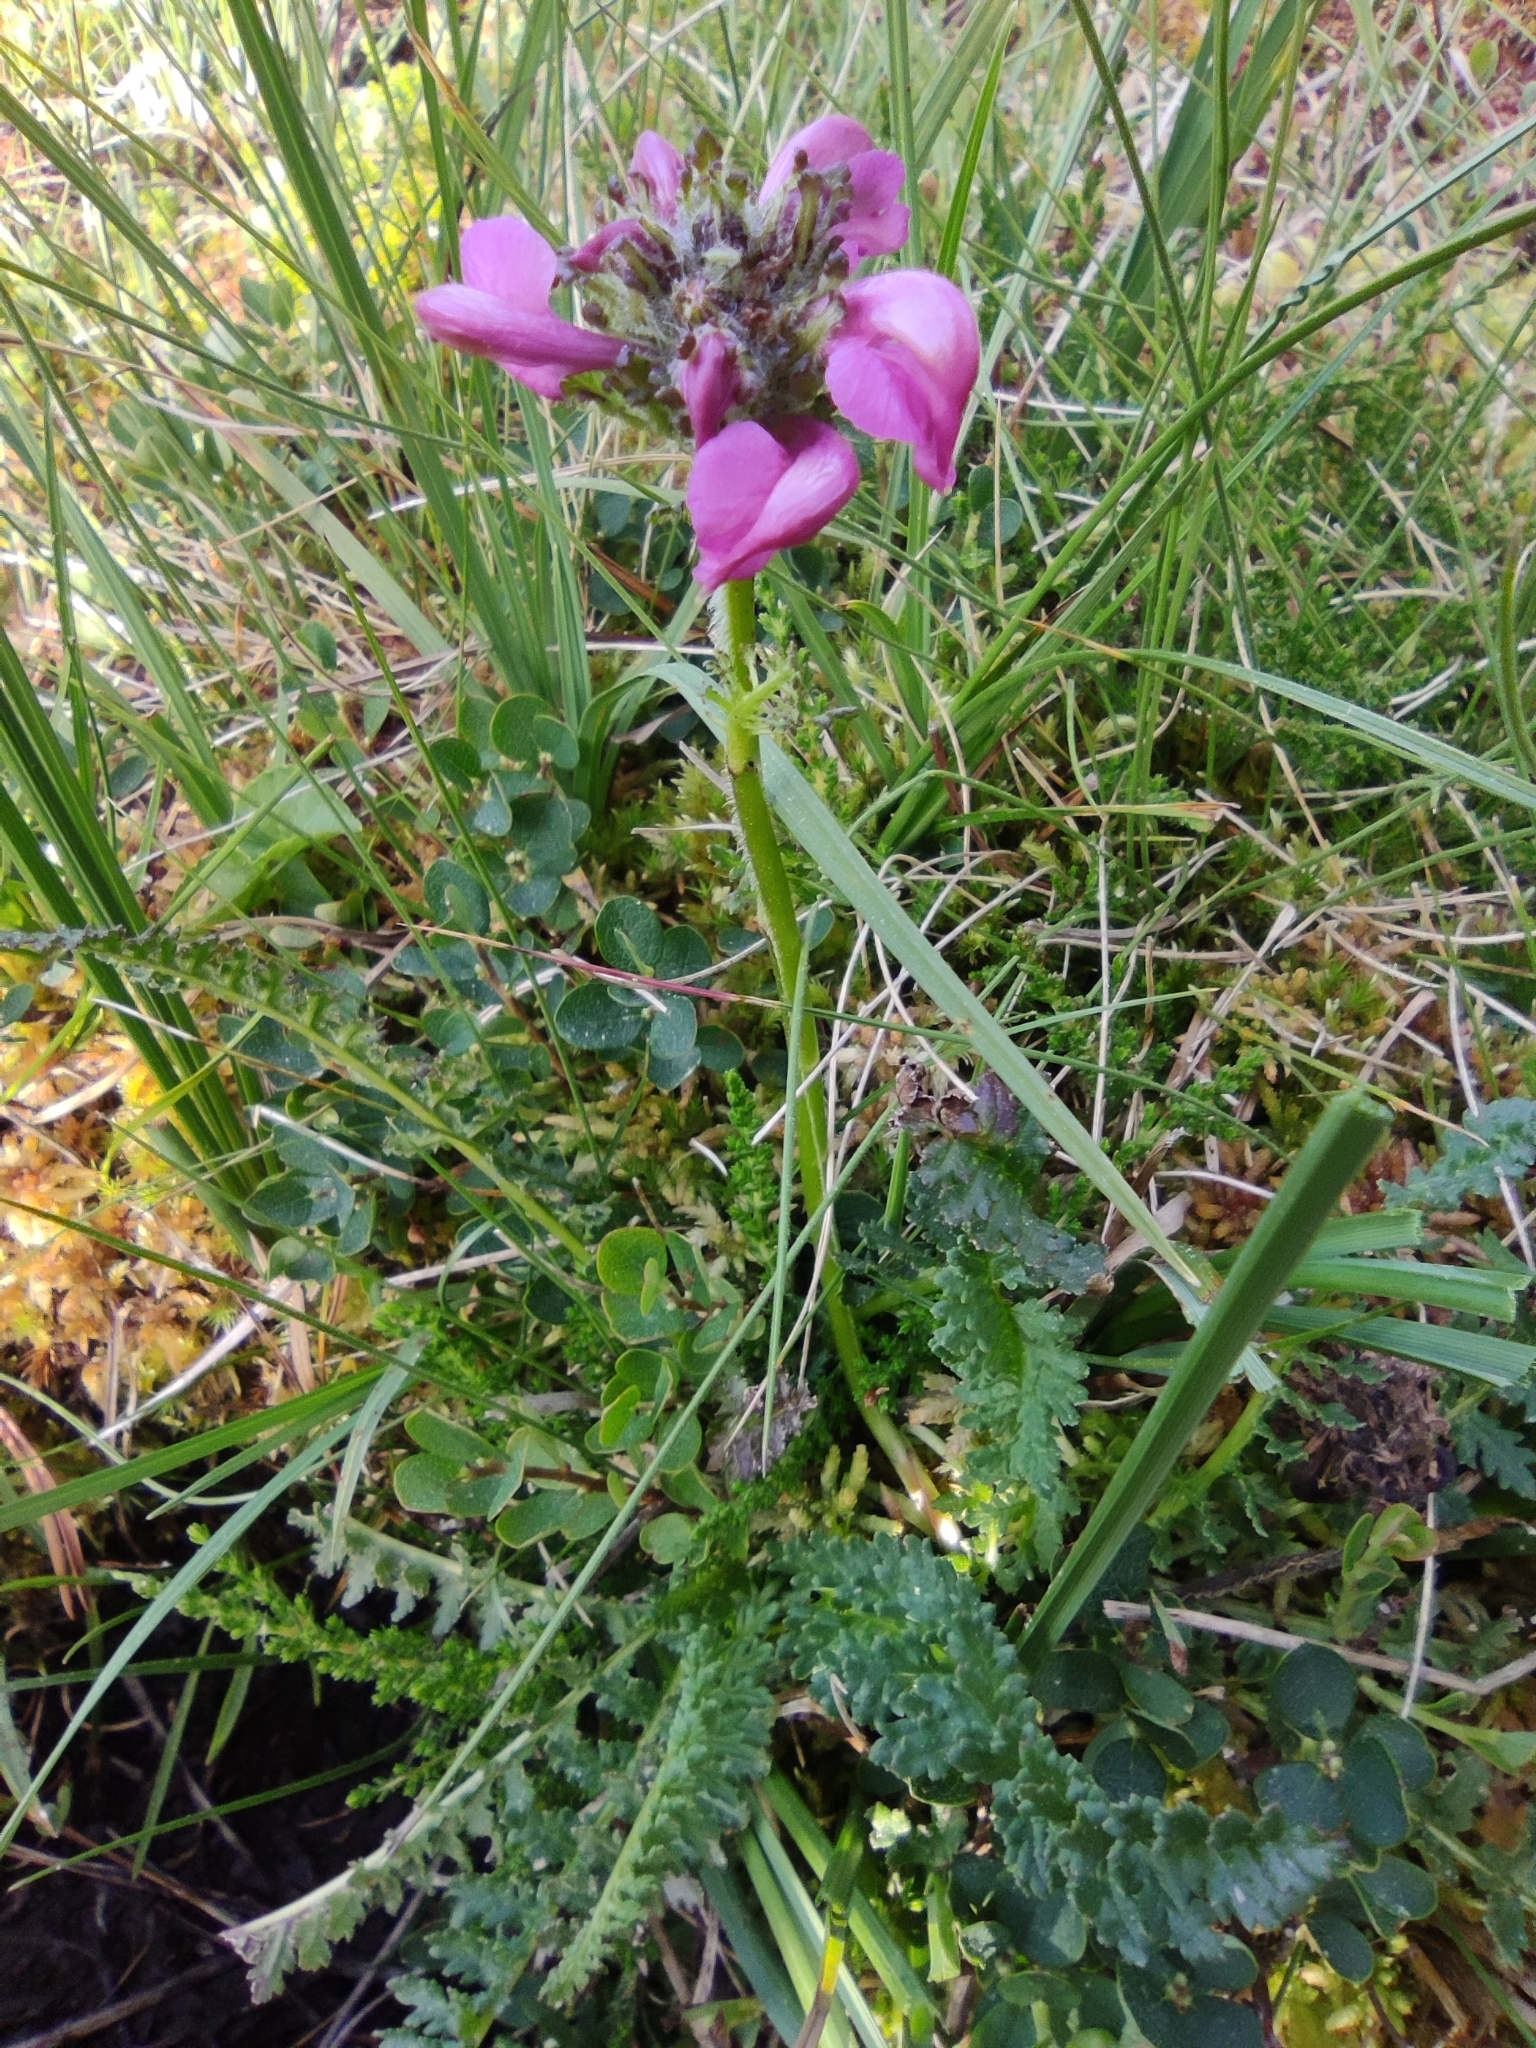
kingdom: Plantae
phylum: Tracheophyta
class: Magnoliopsida
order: Lamiales
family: Orobanchaceae
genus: Pedicularis
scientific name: Pedicularis pyrenaica
